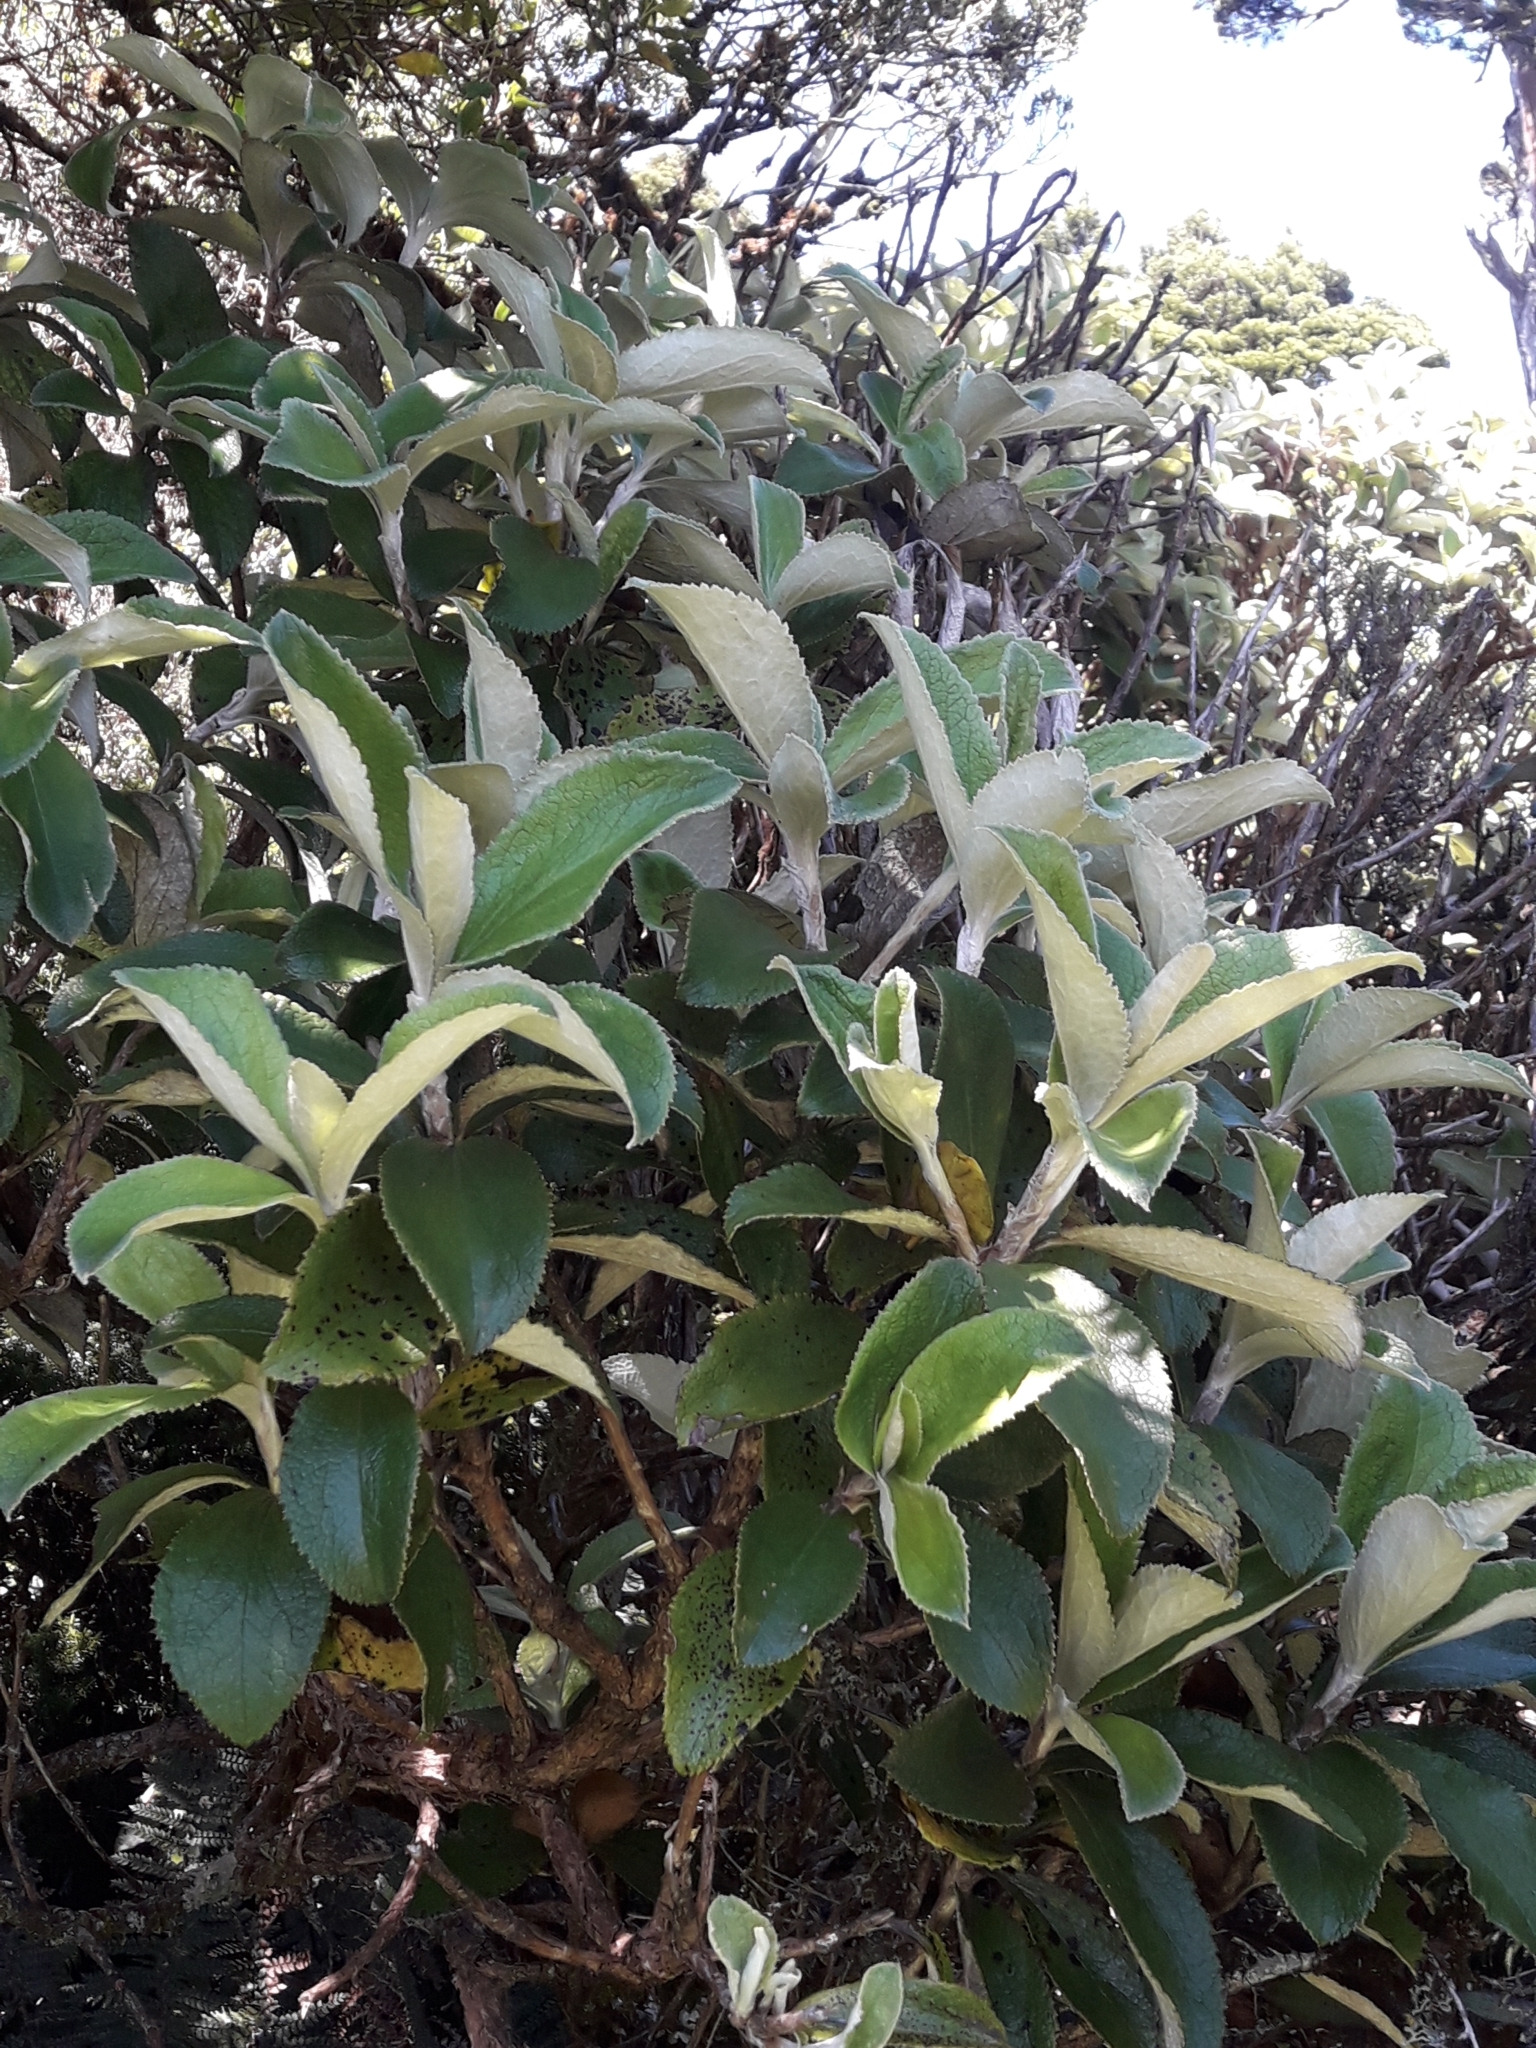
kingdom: Plantae
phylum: Tracheophyta
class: Magnoliopsida
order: Asterales
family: Asteraceae
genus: Macrolearia
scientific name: Macrolearia colensoi
